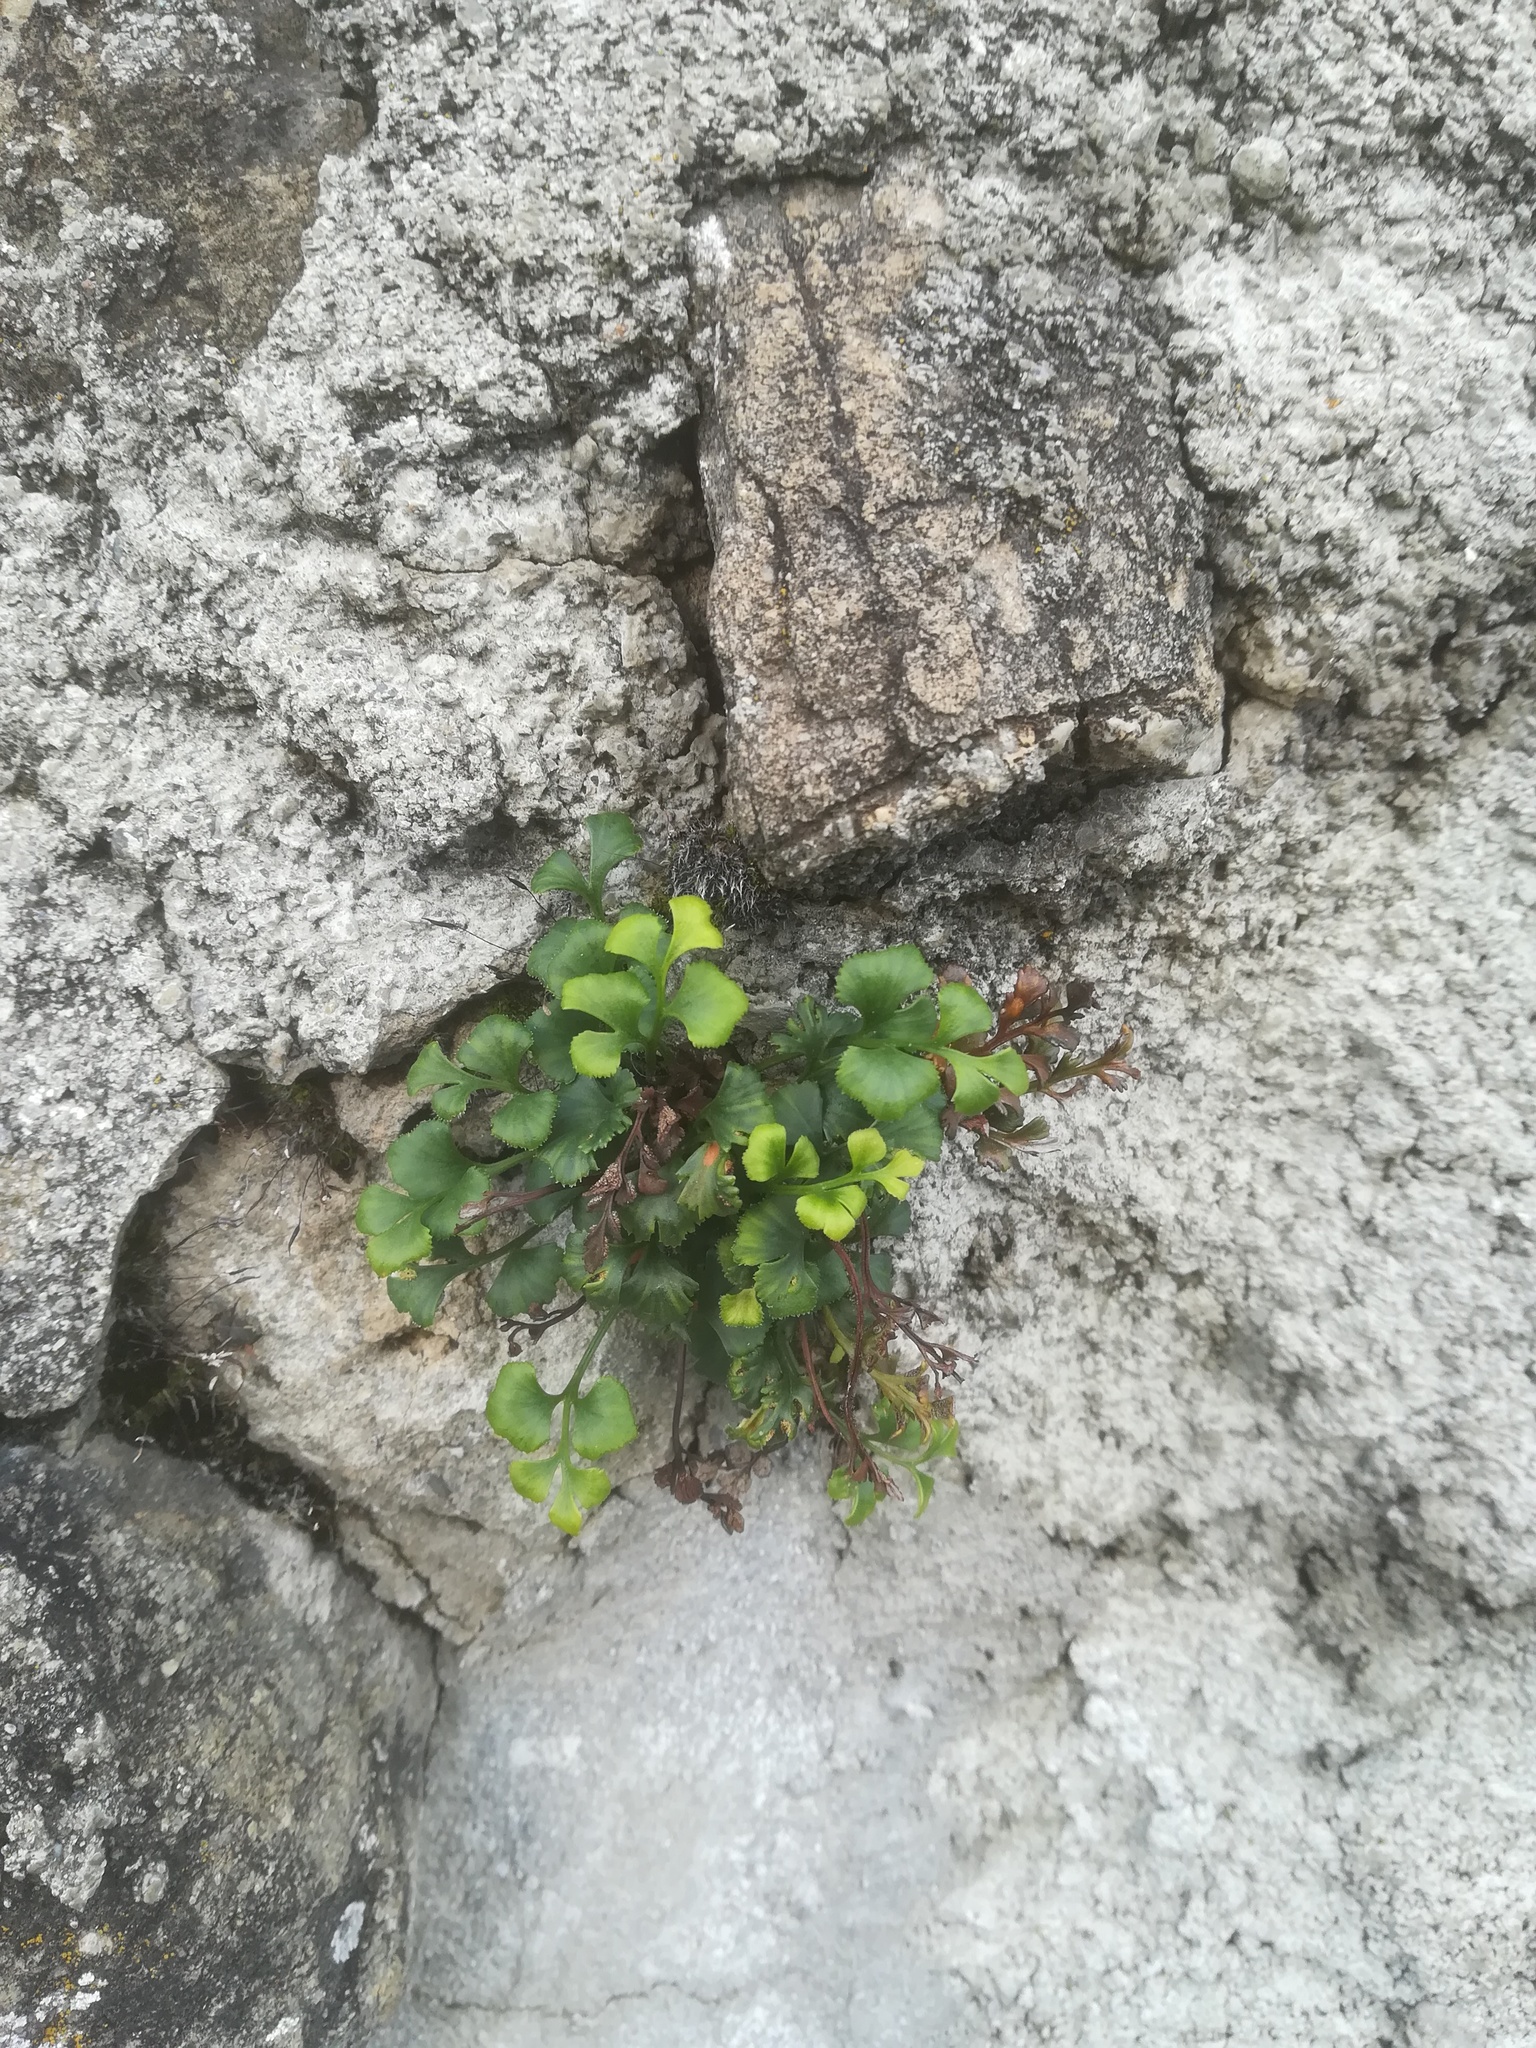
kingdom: Plantae
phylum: Tracheophyta
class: Polypodiopsida
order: Polypodiales
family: Aspleniaceae
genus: Asplenium
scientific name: Asplenium ruta-muraria
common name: Wall-rue
